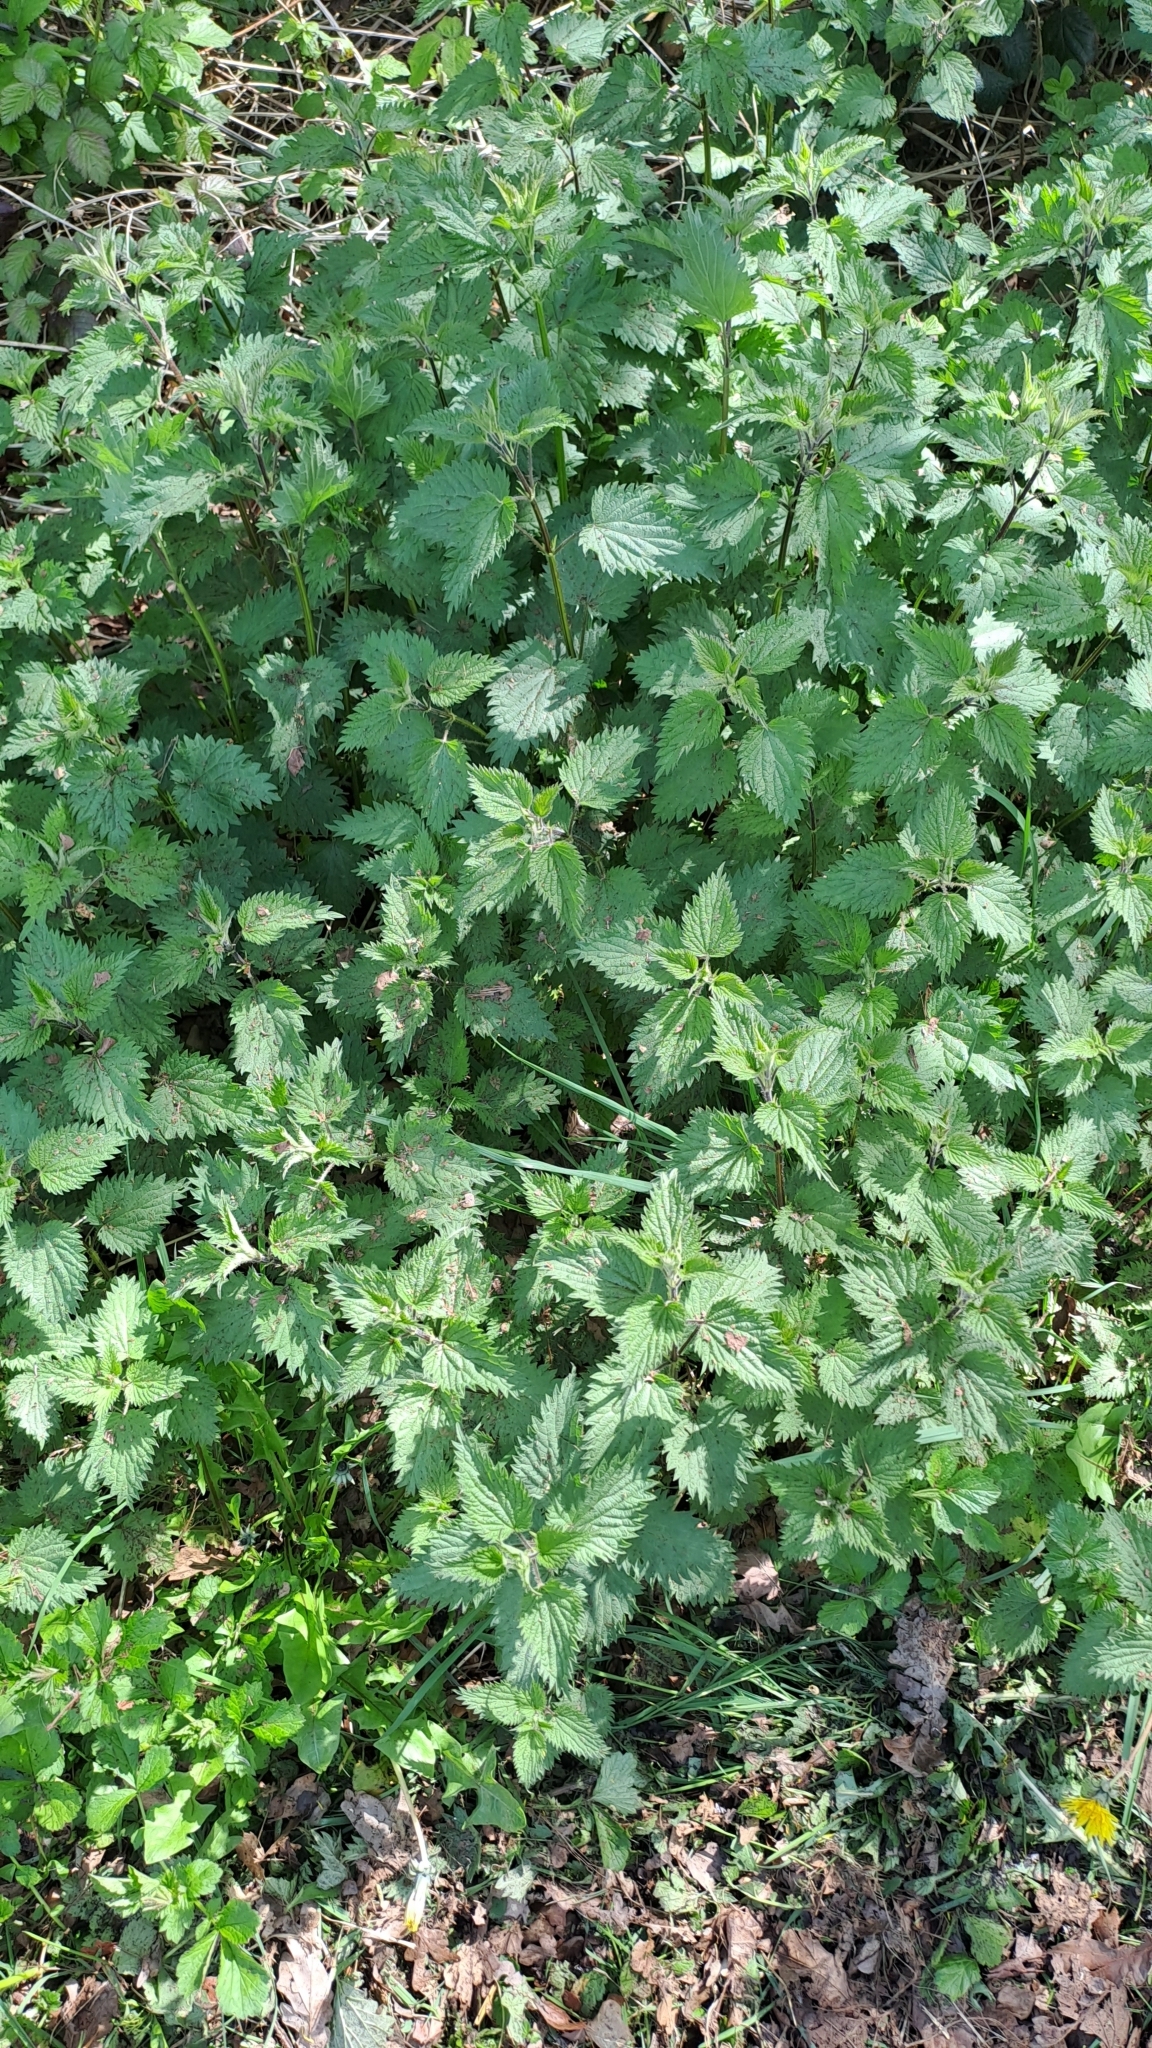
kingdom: Plantae
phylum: Tracheophyta
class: Magnoliopsida
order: Rosales
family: Urticaceae
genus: Urtica
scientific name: Urtica dioica
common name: Common nettle
